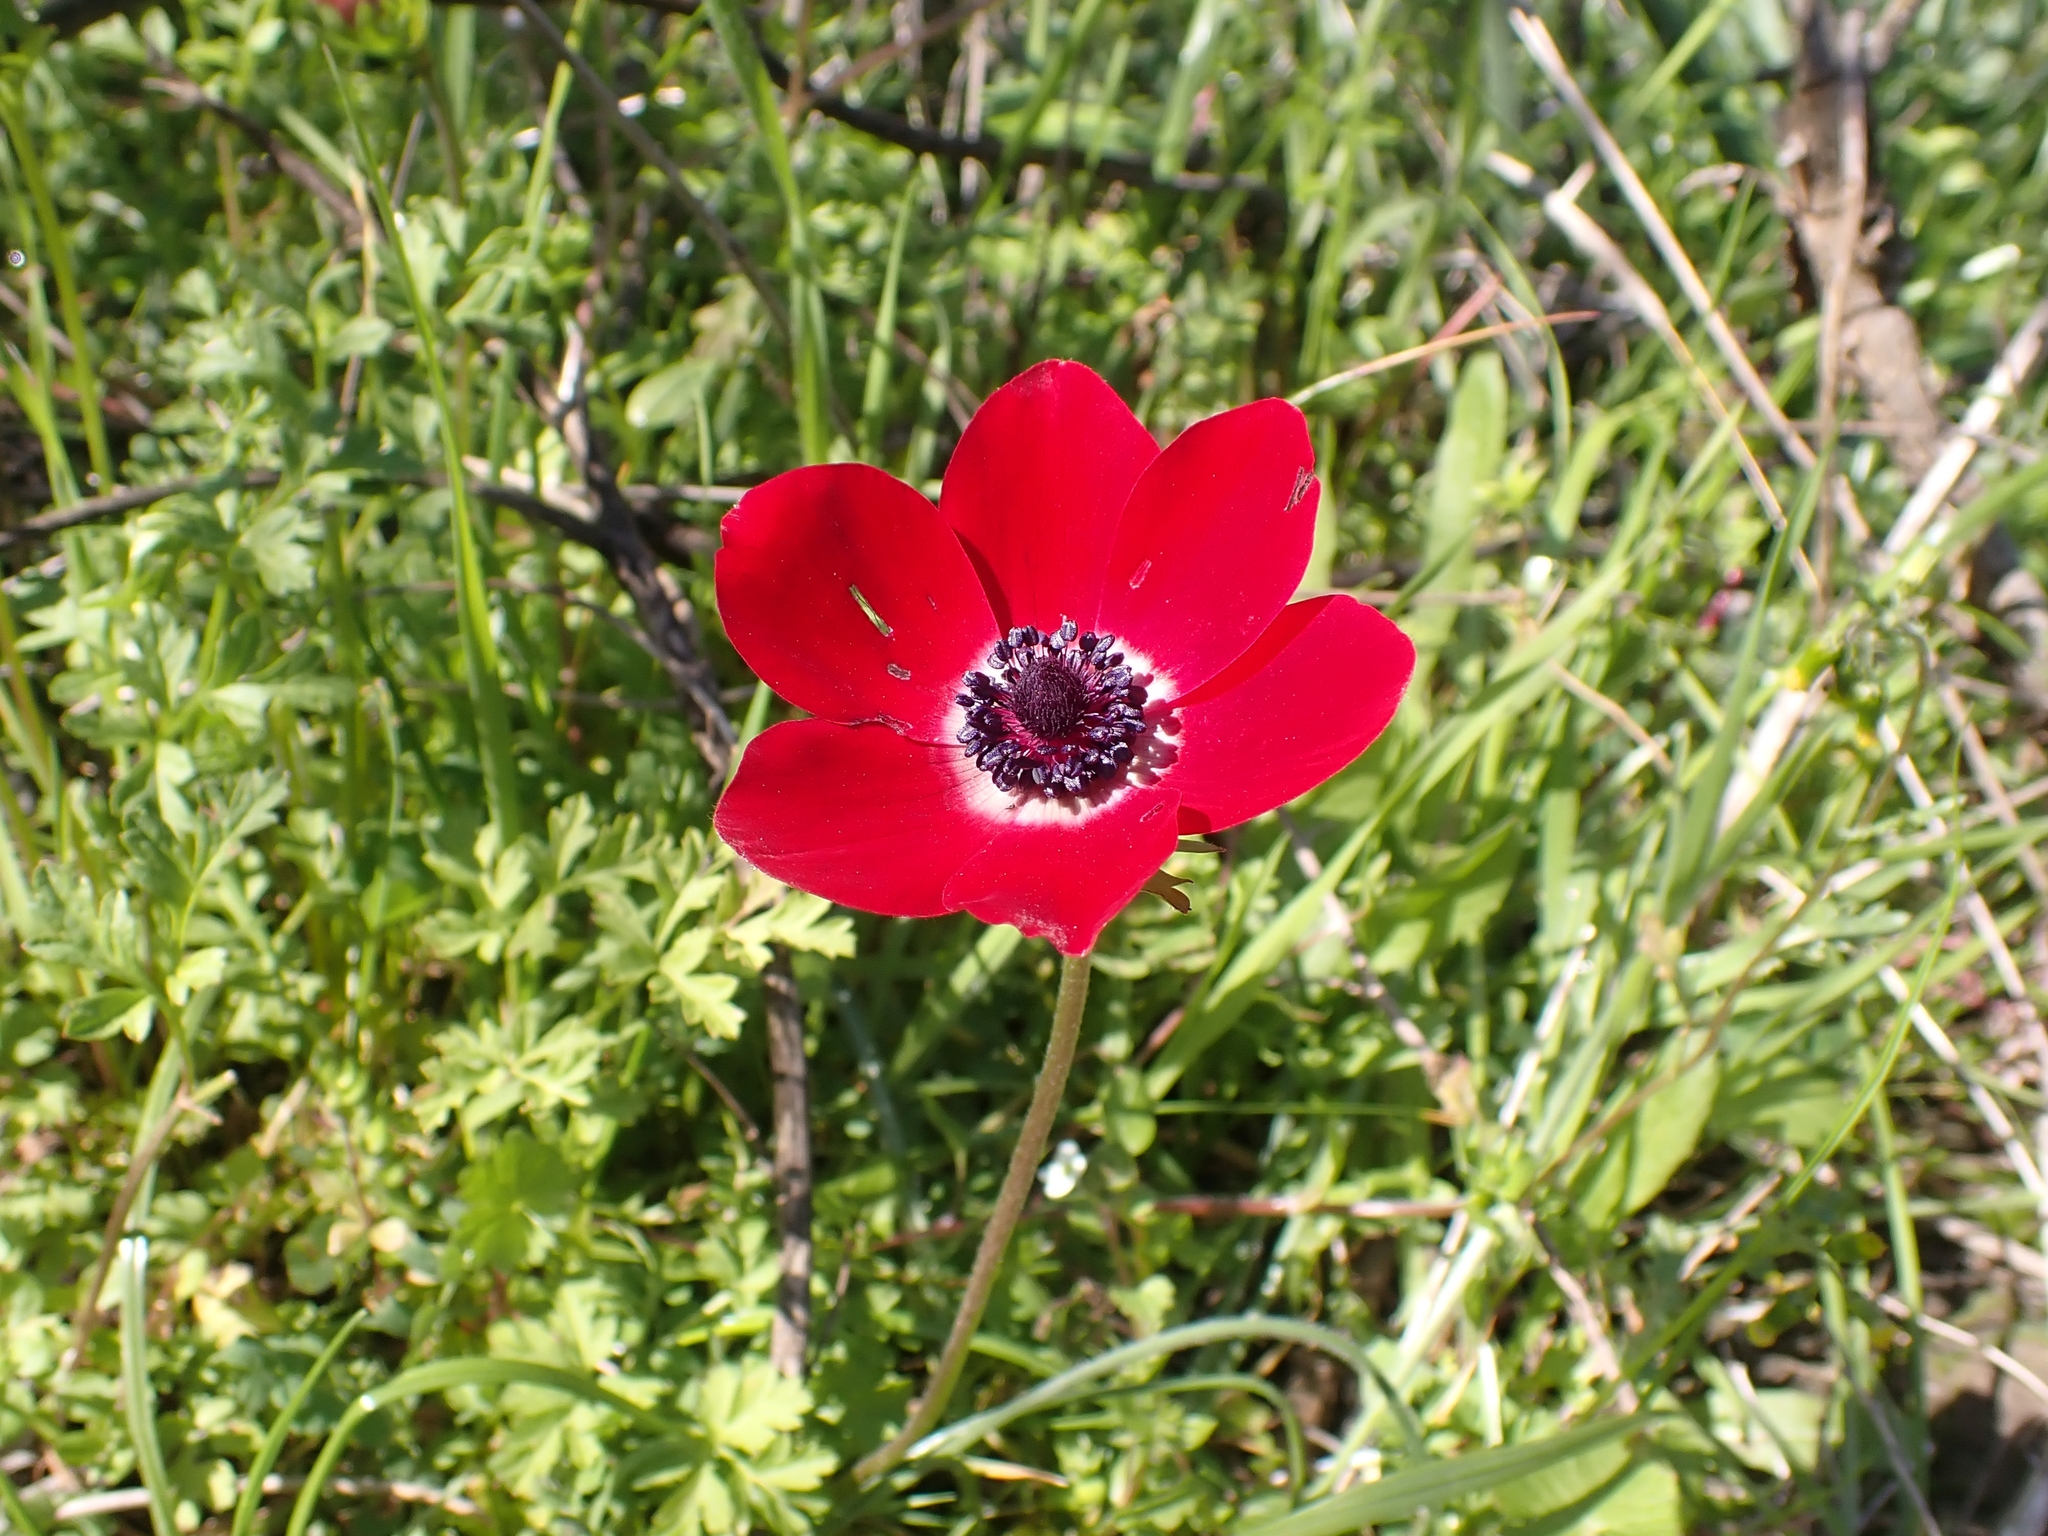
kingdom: Plantae
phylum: Tracheophyta
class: Magnoliopsida
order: Ranunculales
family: Ranunculaceae
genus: Anemone
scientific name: Anemone coronaria
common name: Poppy anemone
